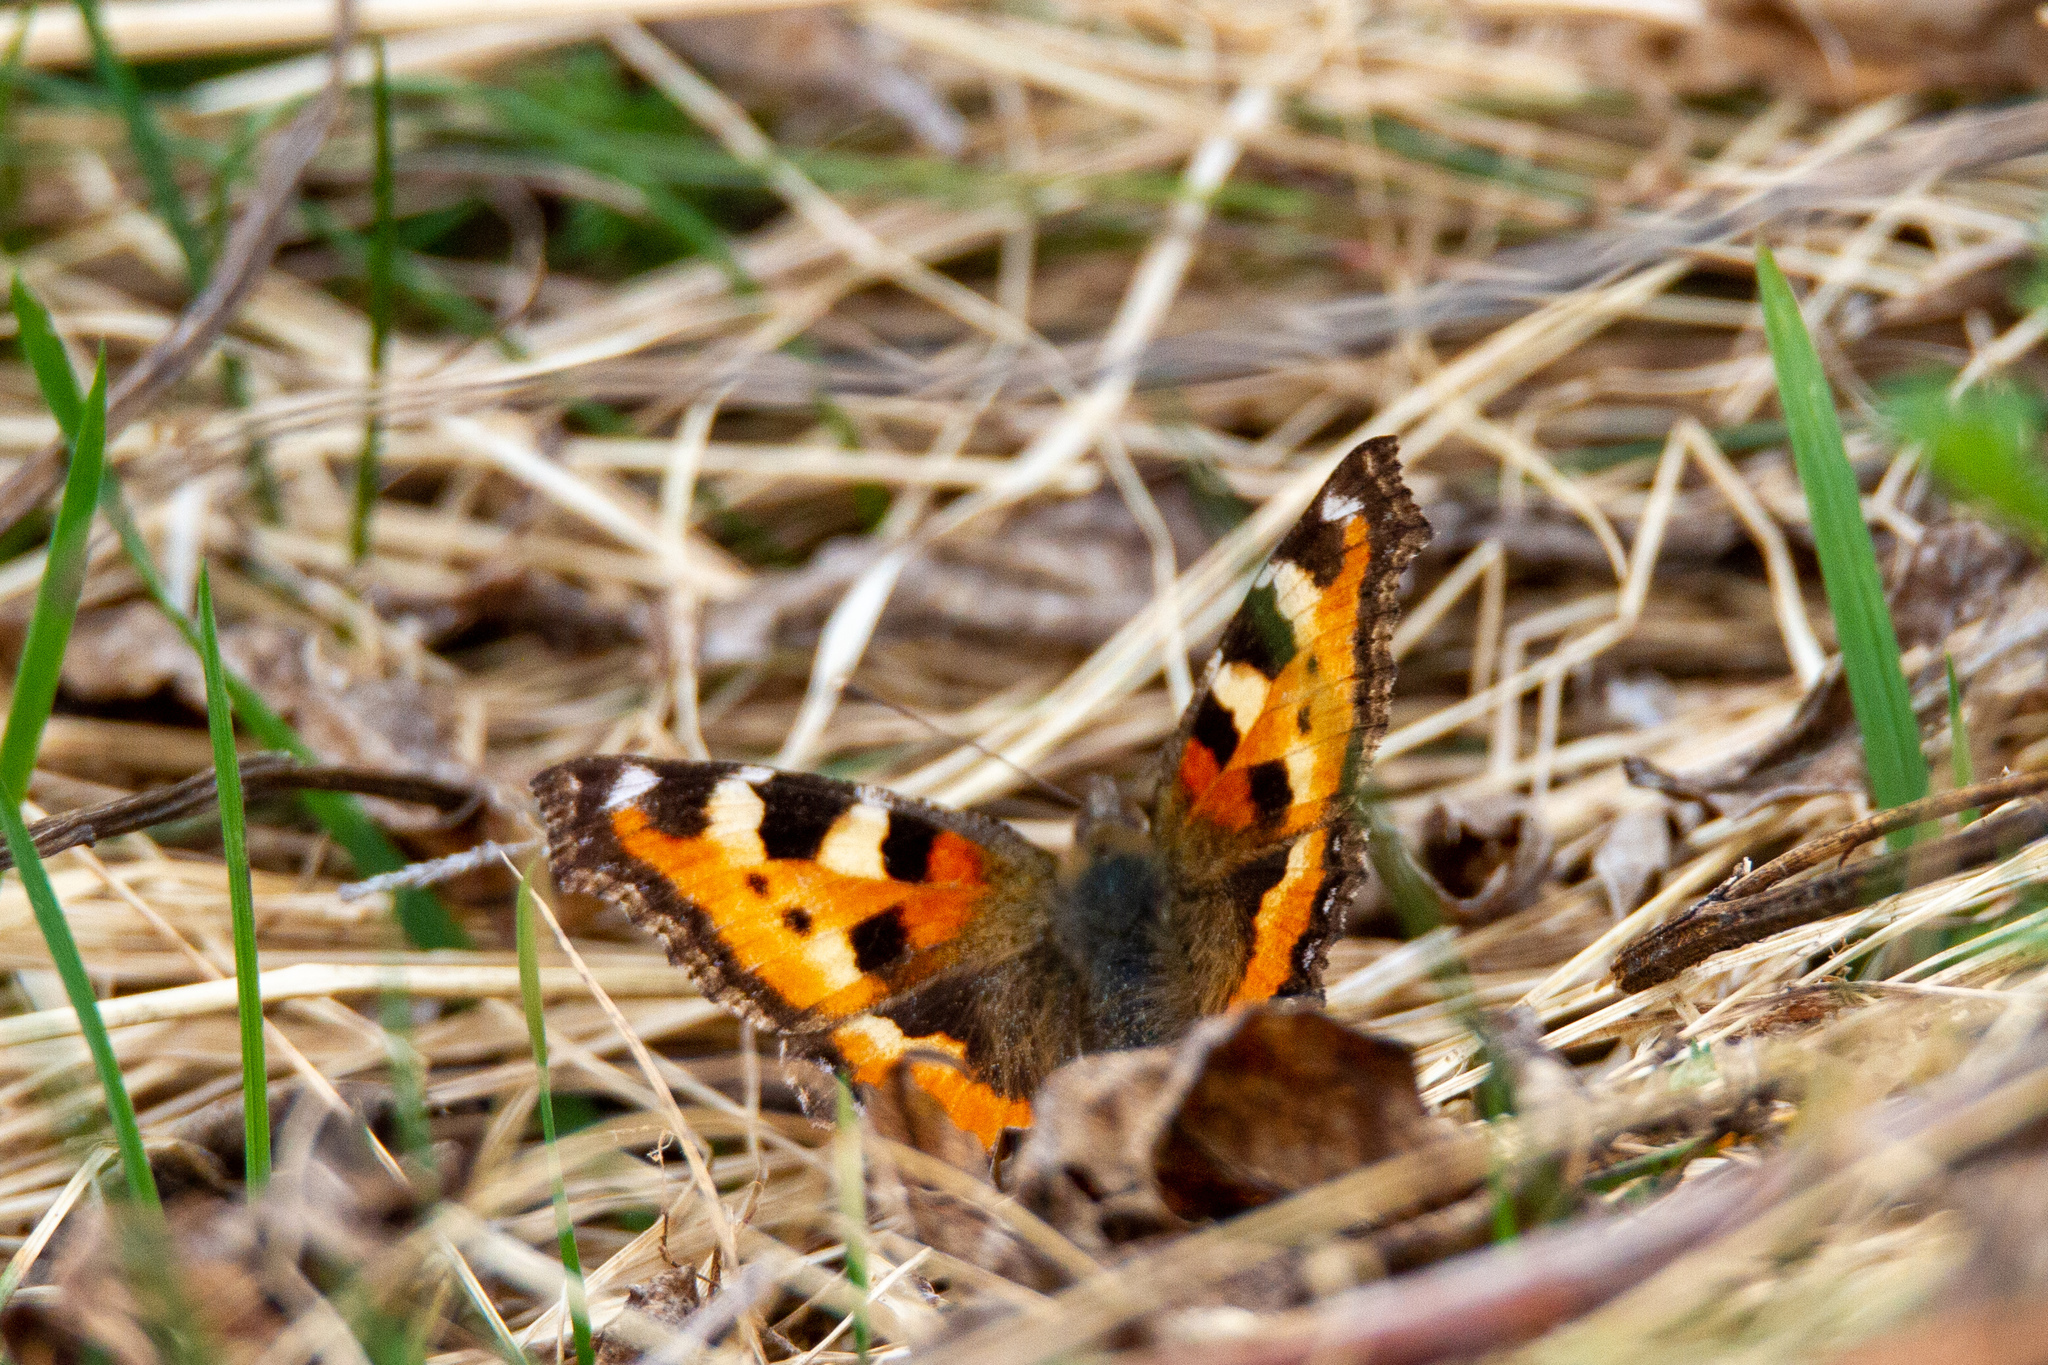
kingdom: Animalia
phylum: Arthropoda
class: Insecta
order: Lepidoptera
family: Nymphalidae
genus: Aglais
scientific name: Aglais urticae
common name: Small tortoiseshell
